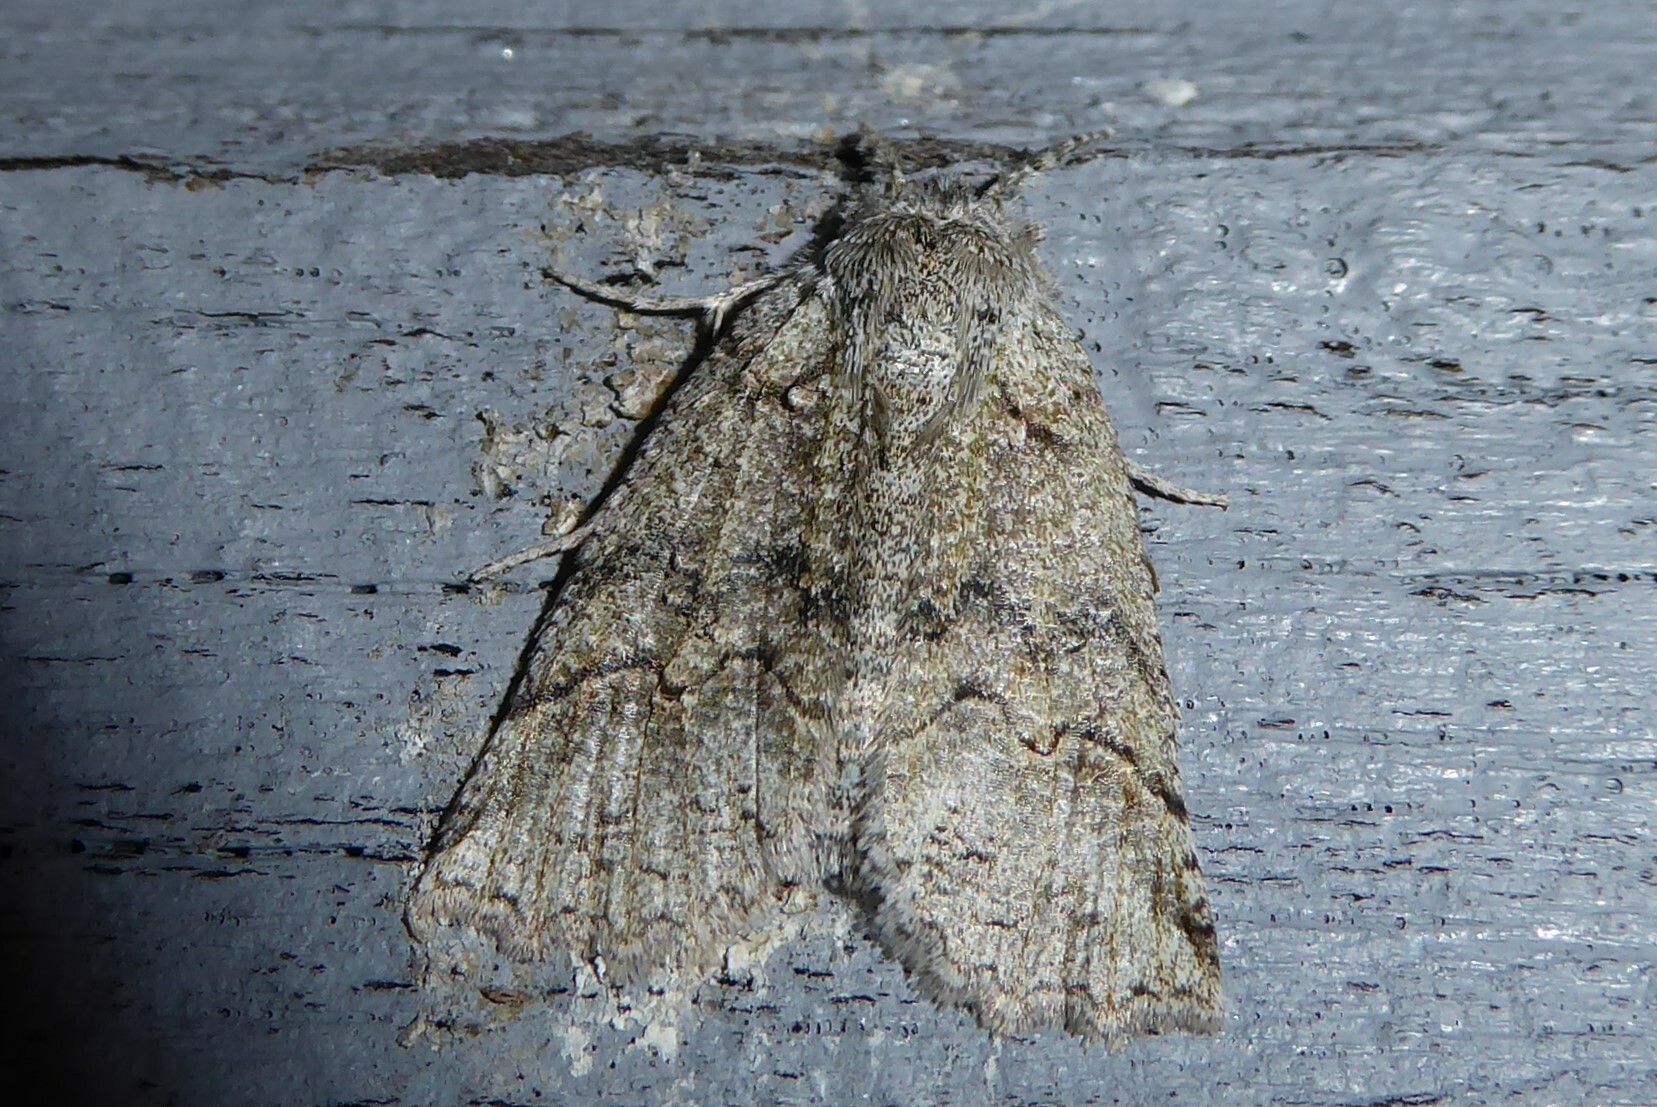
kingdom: Animalia
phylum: Arthropoda
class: Insecta
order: Lepidoptera
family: Geometridae
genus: Declana
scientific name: Declana floccosa
